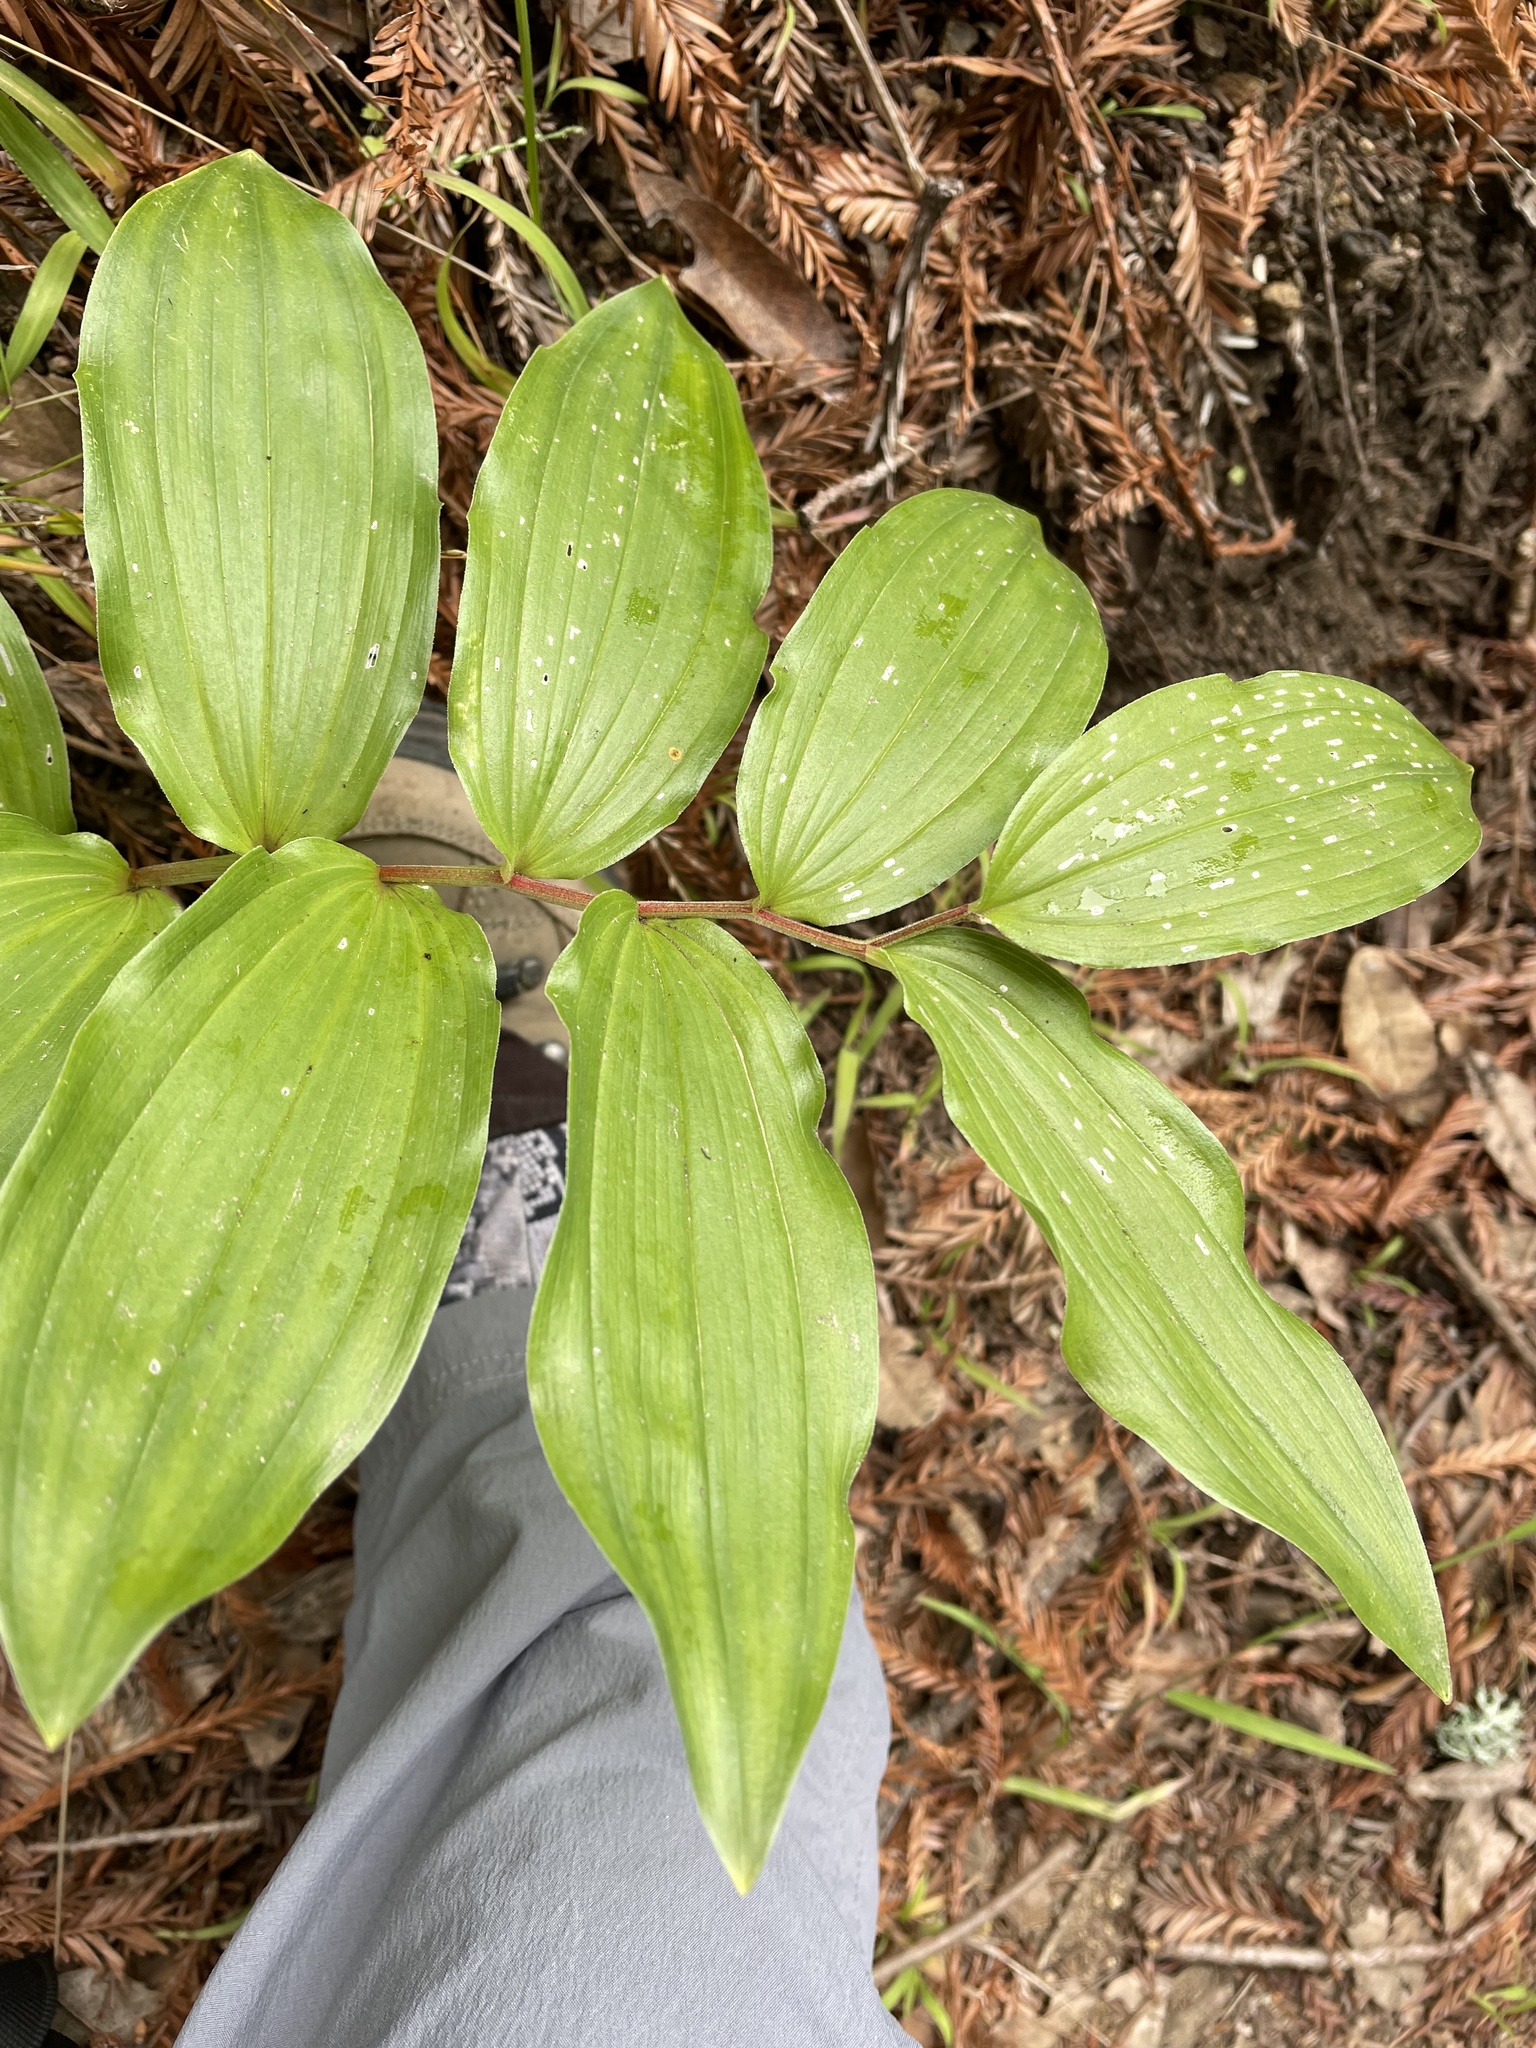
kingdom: Plantae
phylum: Tracheophyta
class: Liliopsida
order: Asparagales
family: Asparagaceae
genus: Maianthemum
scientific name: Maianthemum racemosum
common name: False spikenard
